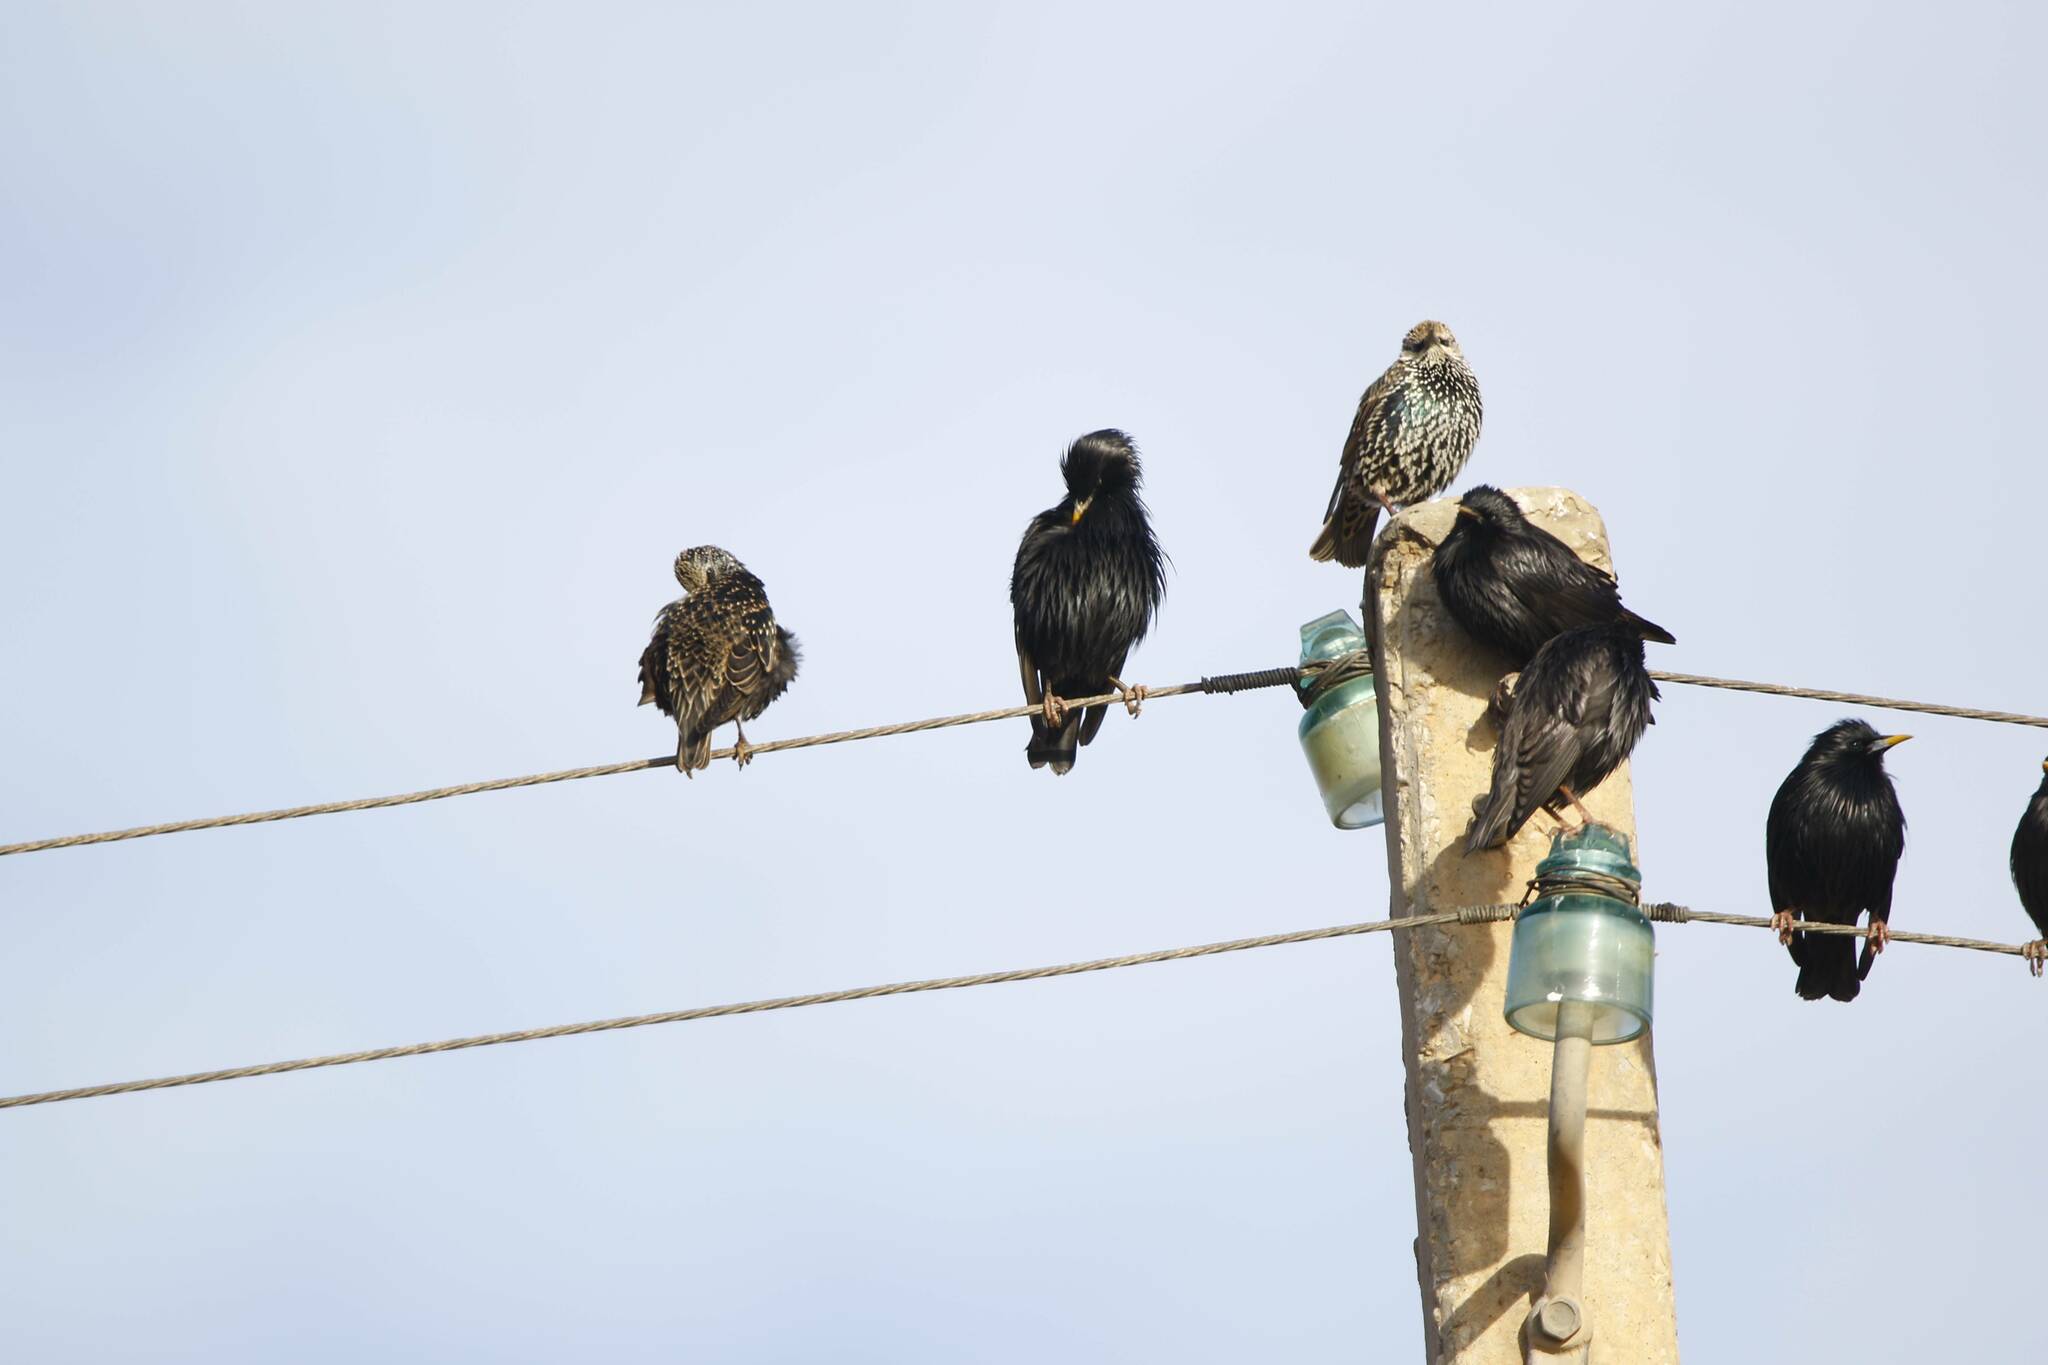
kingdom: Animalia
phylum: Chordata
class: Aves
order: Passeriformes
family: Sturnidae
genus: Sturnus
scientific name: Sturnus unicolor
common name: Spotless starling
